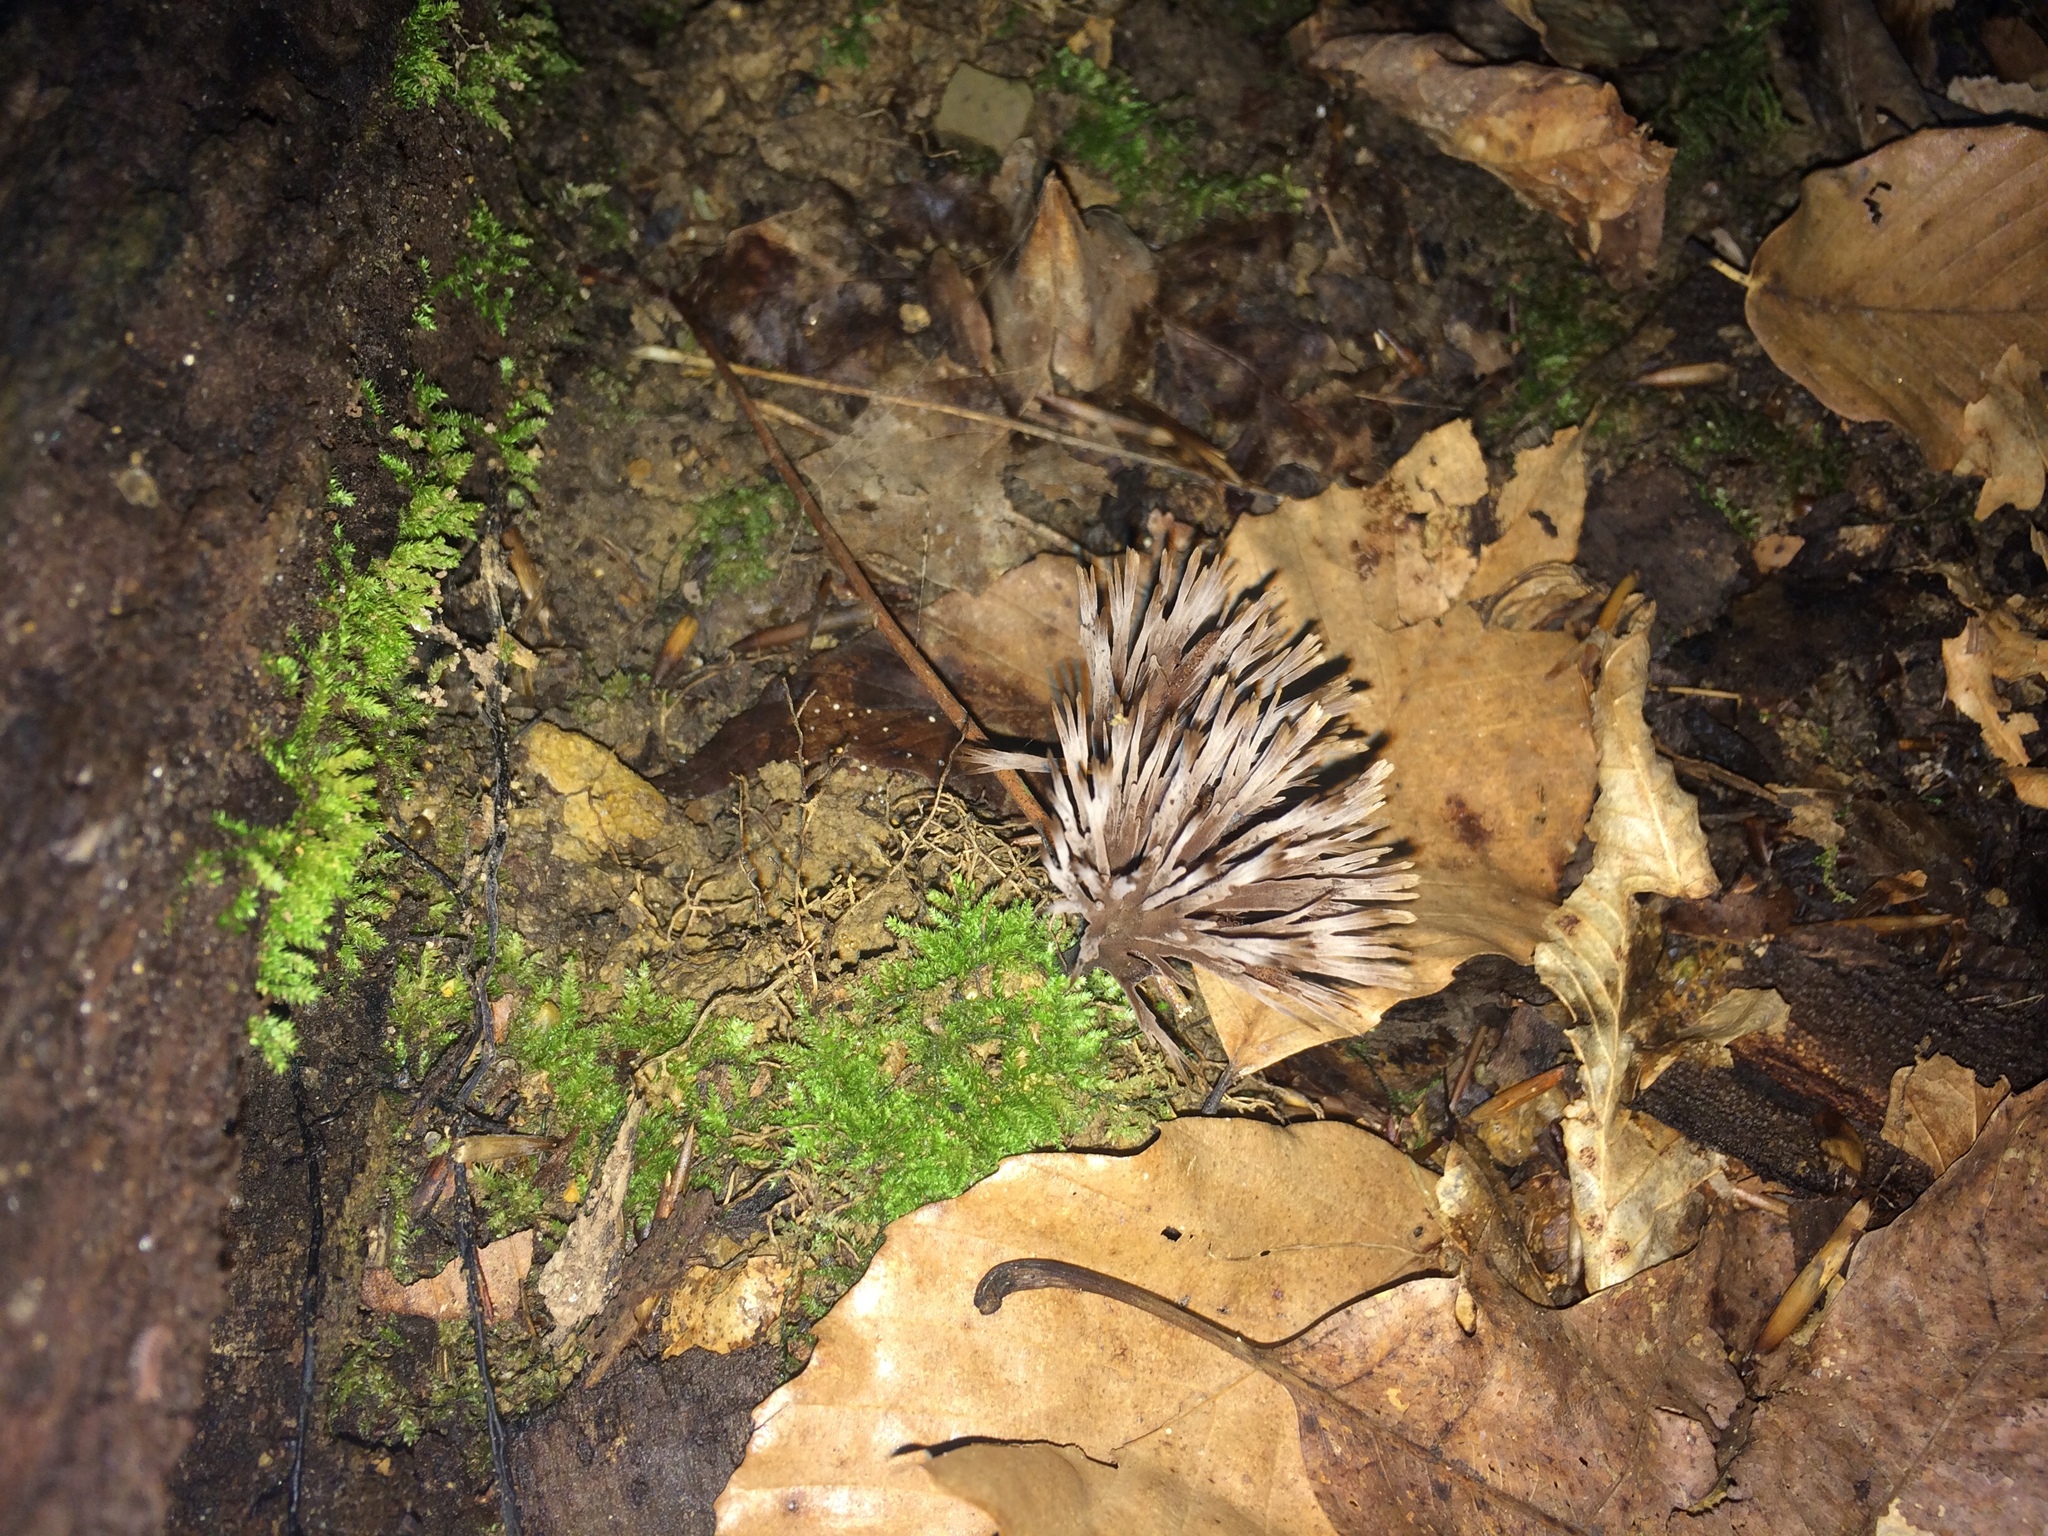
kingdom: Fungi
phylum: Basidiomycota
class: Agaricomycetes
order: Thelephorales
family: Thelephoraceae
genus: Thelephora
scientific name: Thelephora multipartita
